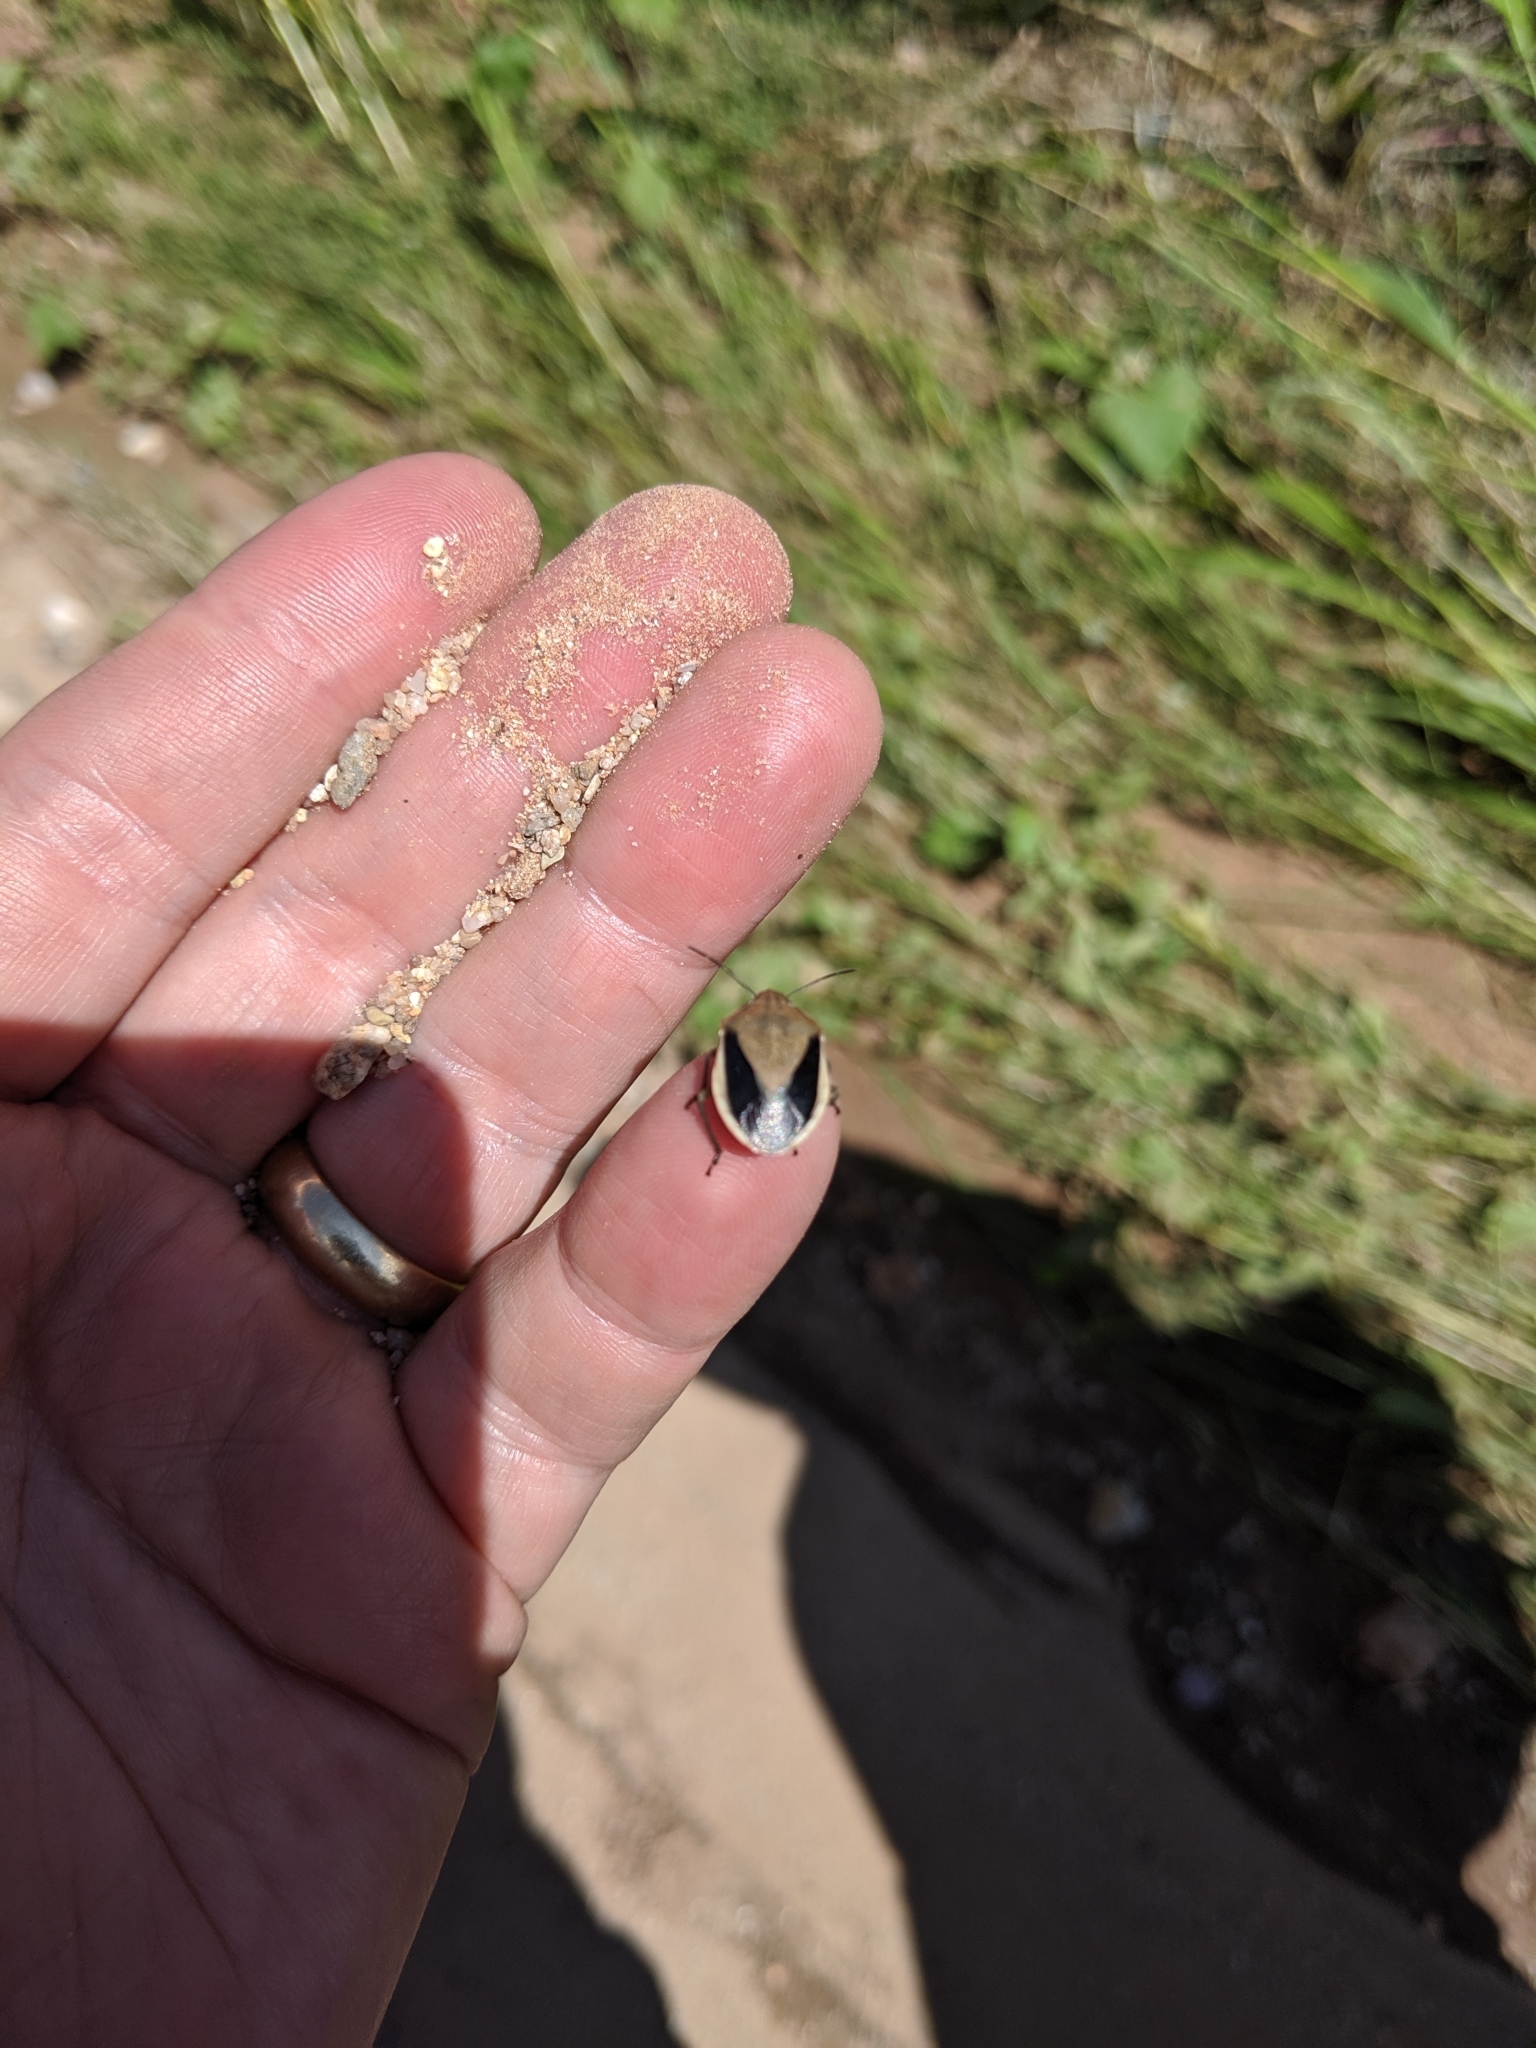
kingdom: Animalia
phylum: Arthropoda
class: Insecta
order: Hemiptera
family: Pentatomidae
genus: Chlorochroa
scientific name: Chlorochroa osborni
